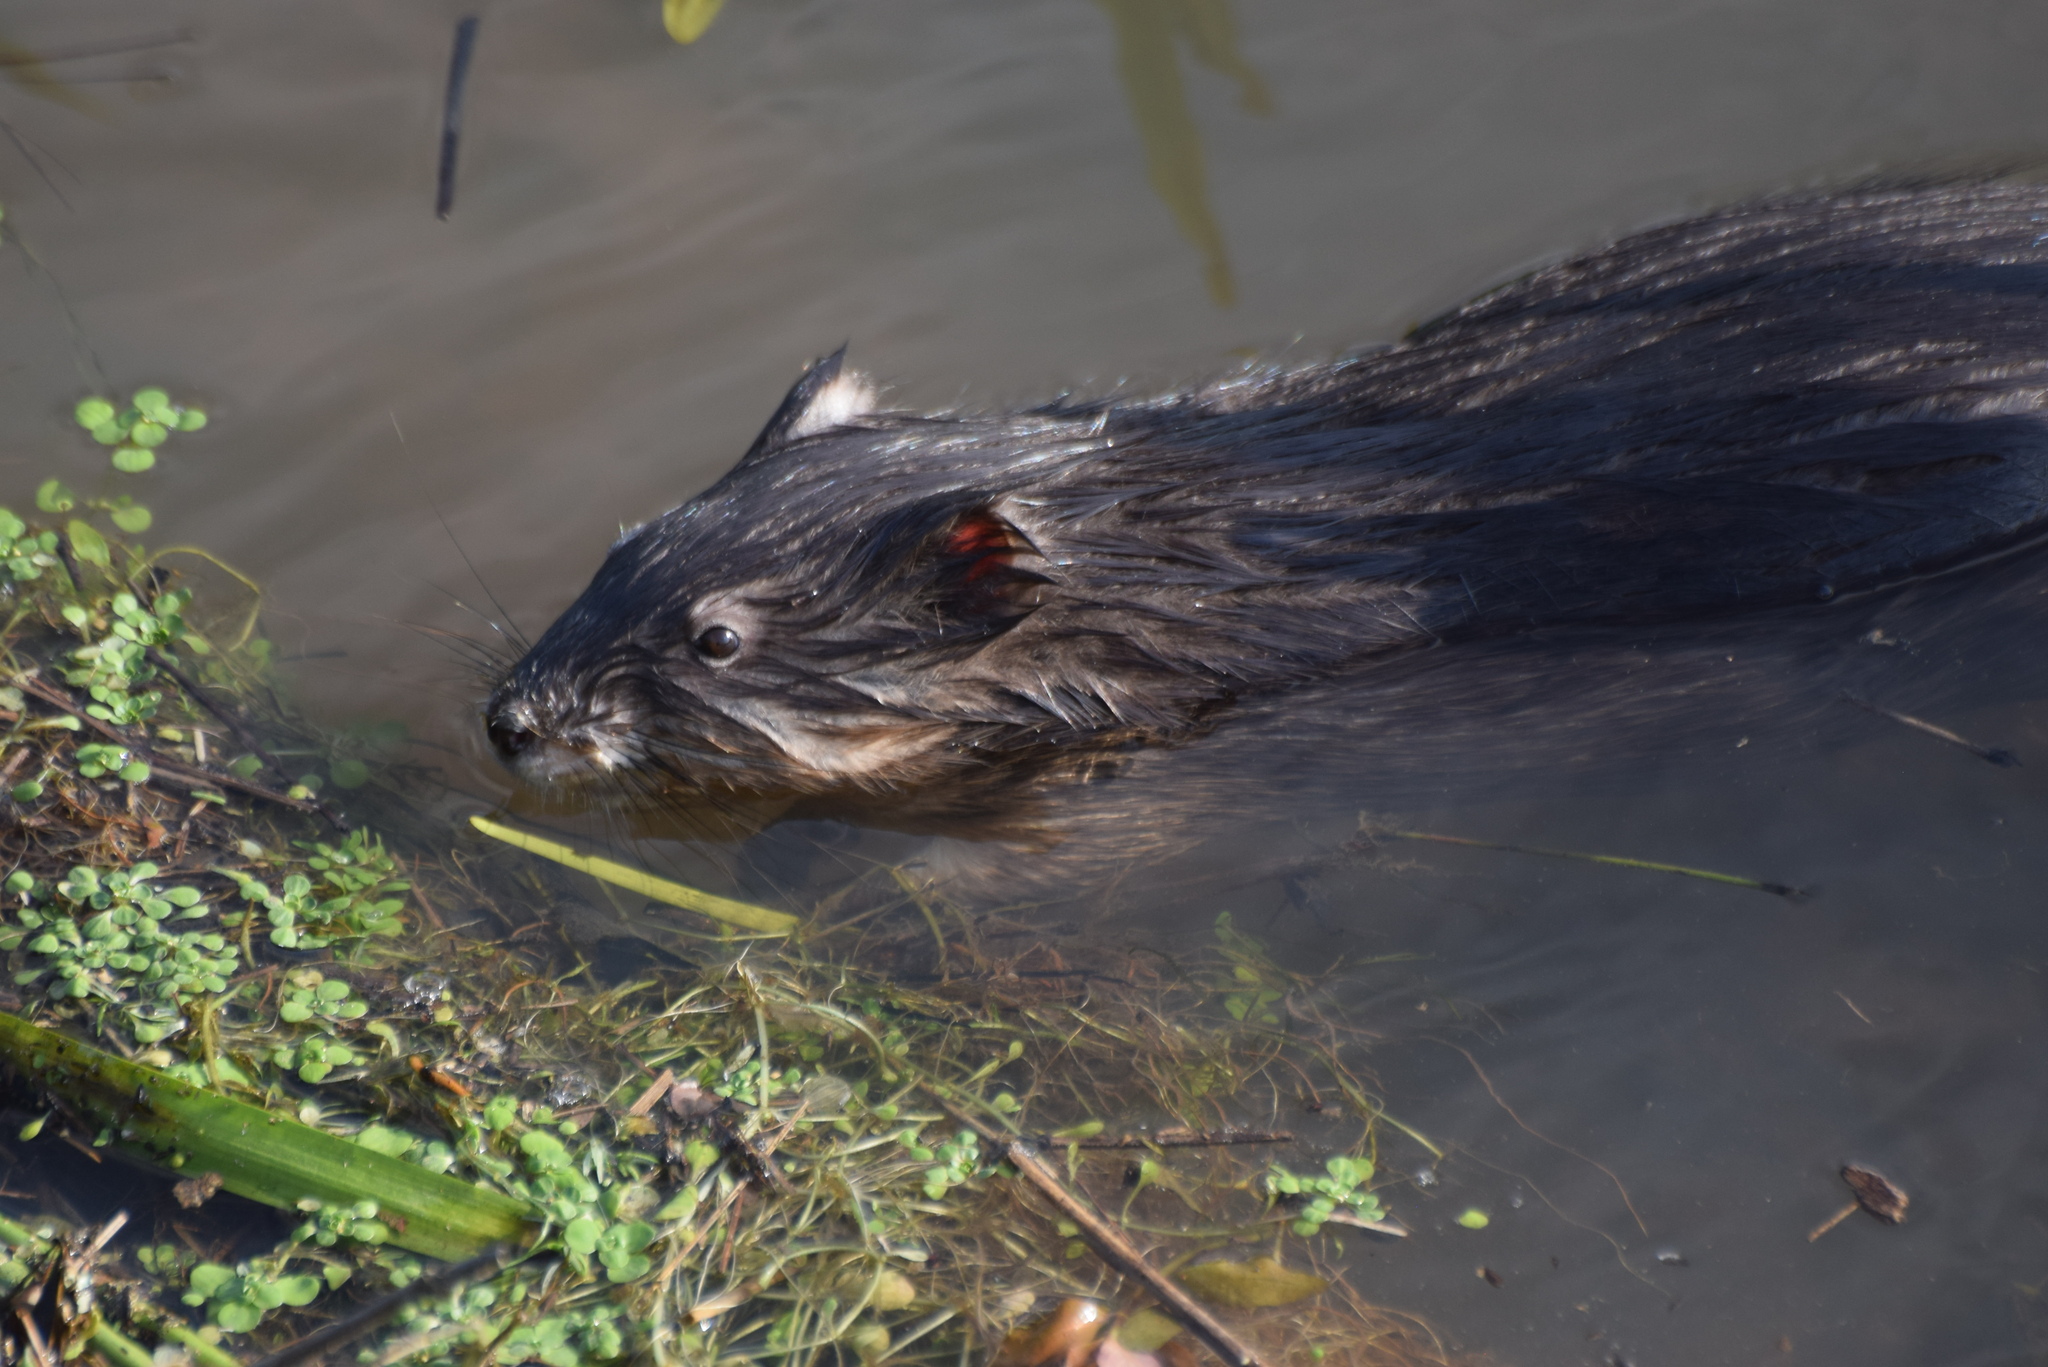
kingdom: Animalia
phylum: Chordata
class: Mammalia
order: Rodentia
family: Cricetidae
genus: Ondatra
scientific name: Ondatra zibethicus
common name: Muskrat
